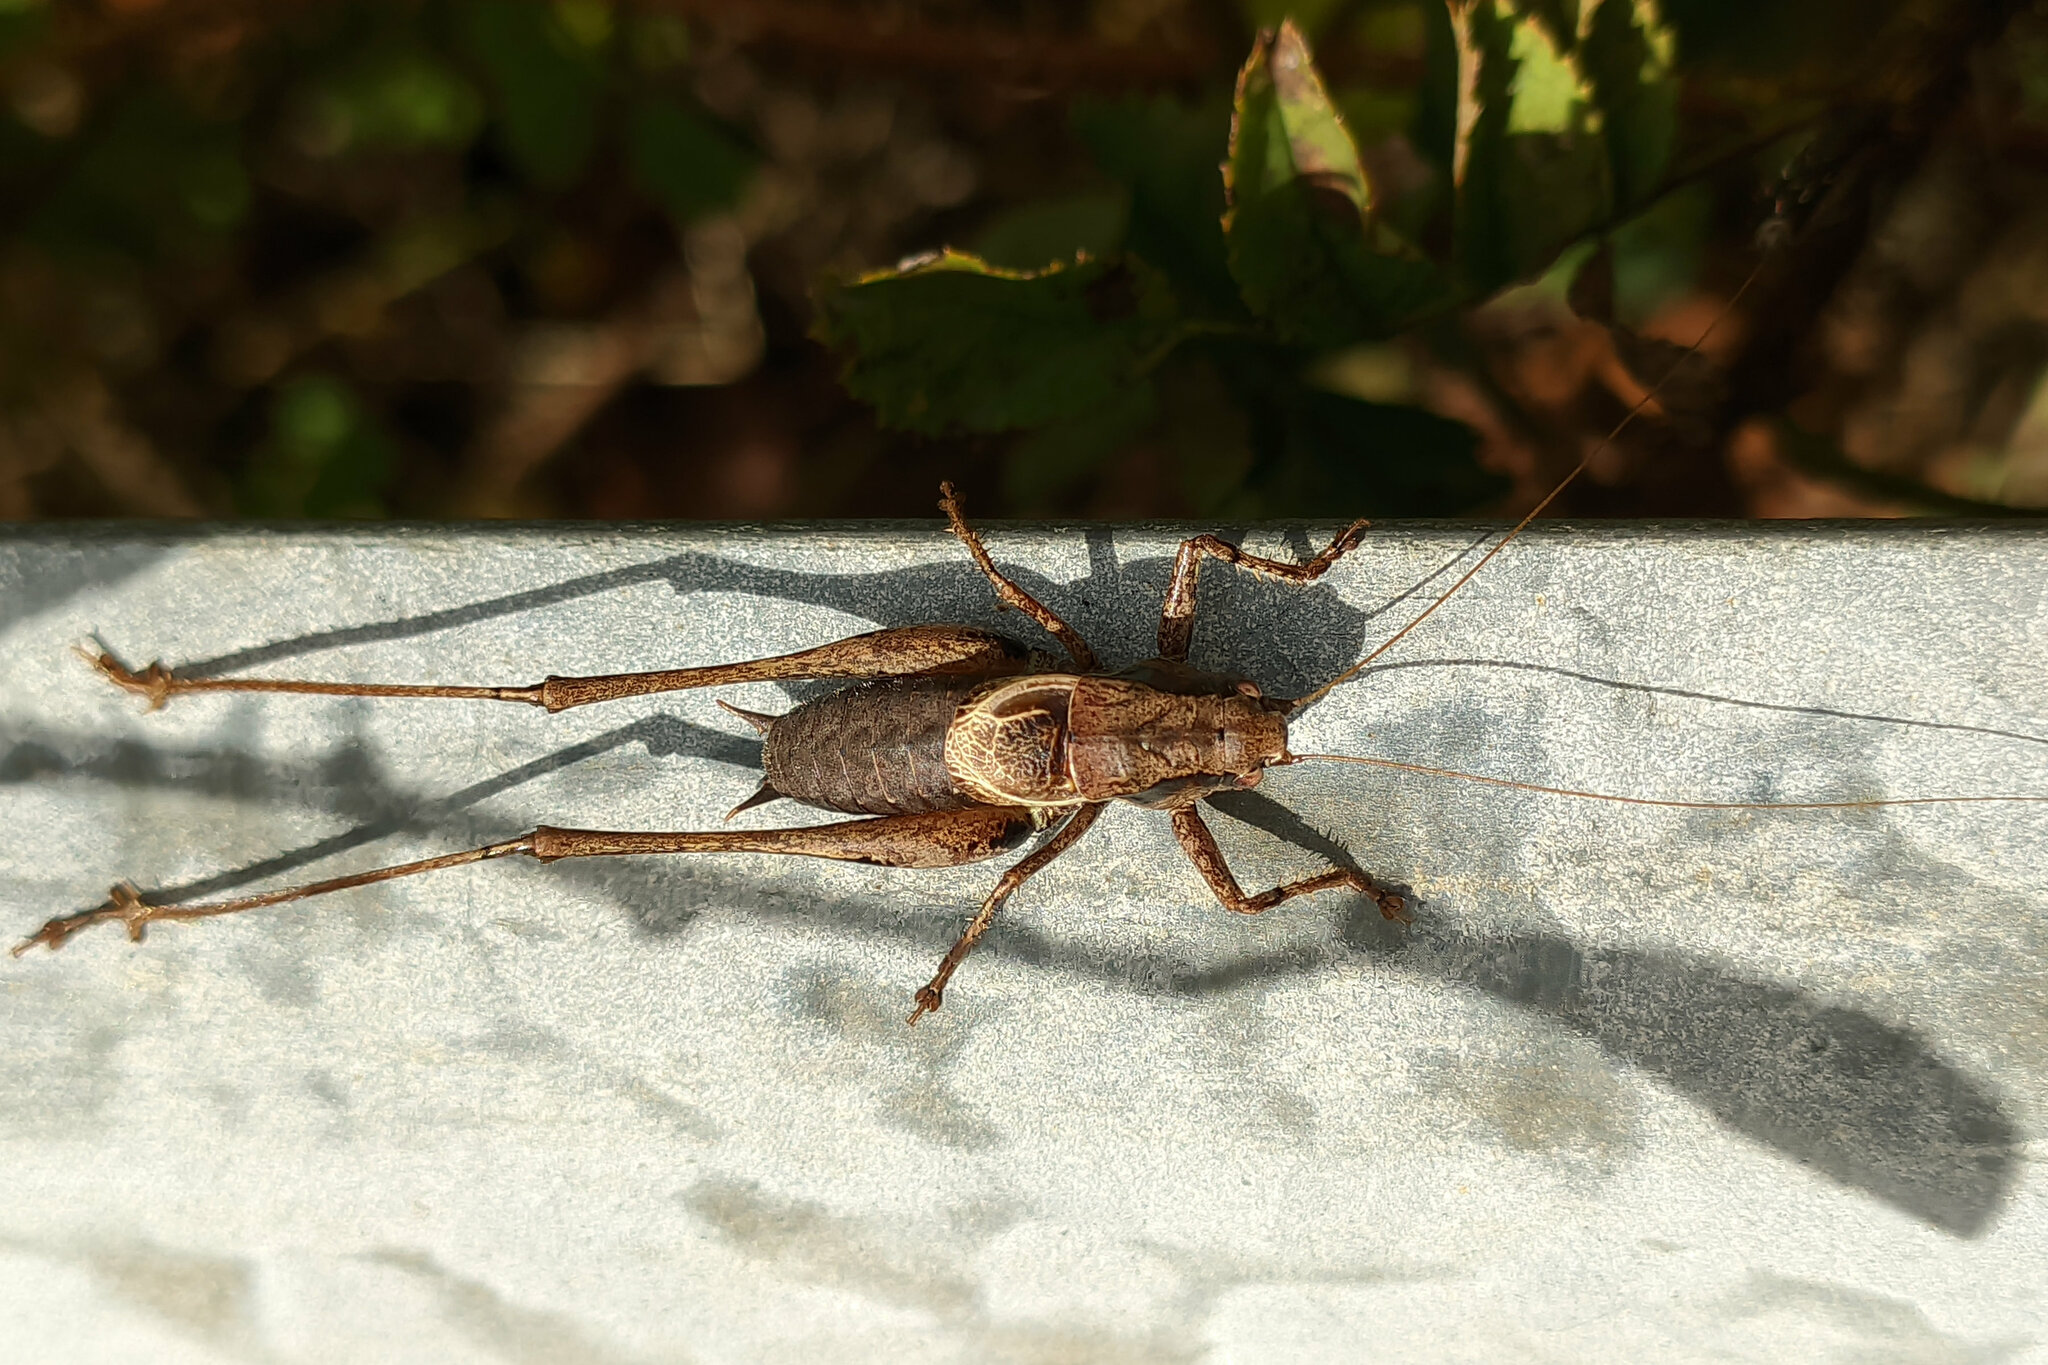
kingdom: Animalia
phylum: Arthropoda
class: Insecta
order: Orthoptera
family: Tettigoniidae
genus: Pholidoptera
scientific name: Pholidoptera griseoaptera
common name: Dark bush-cricket
